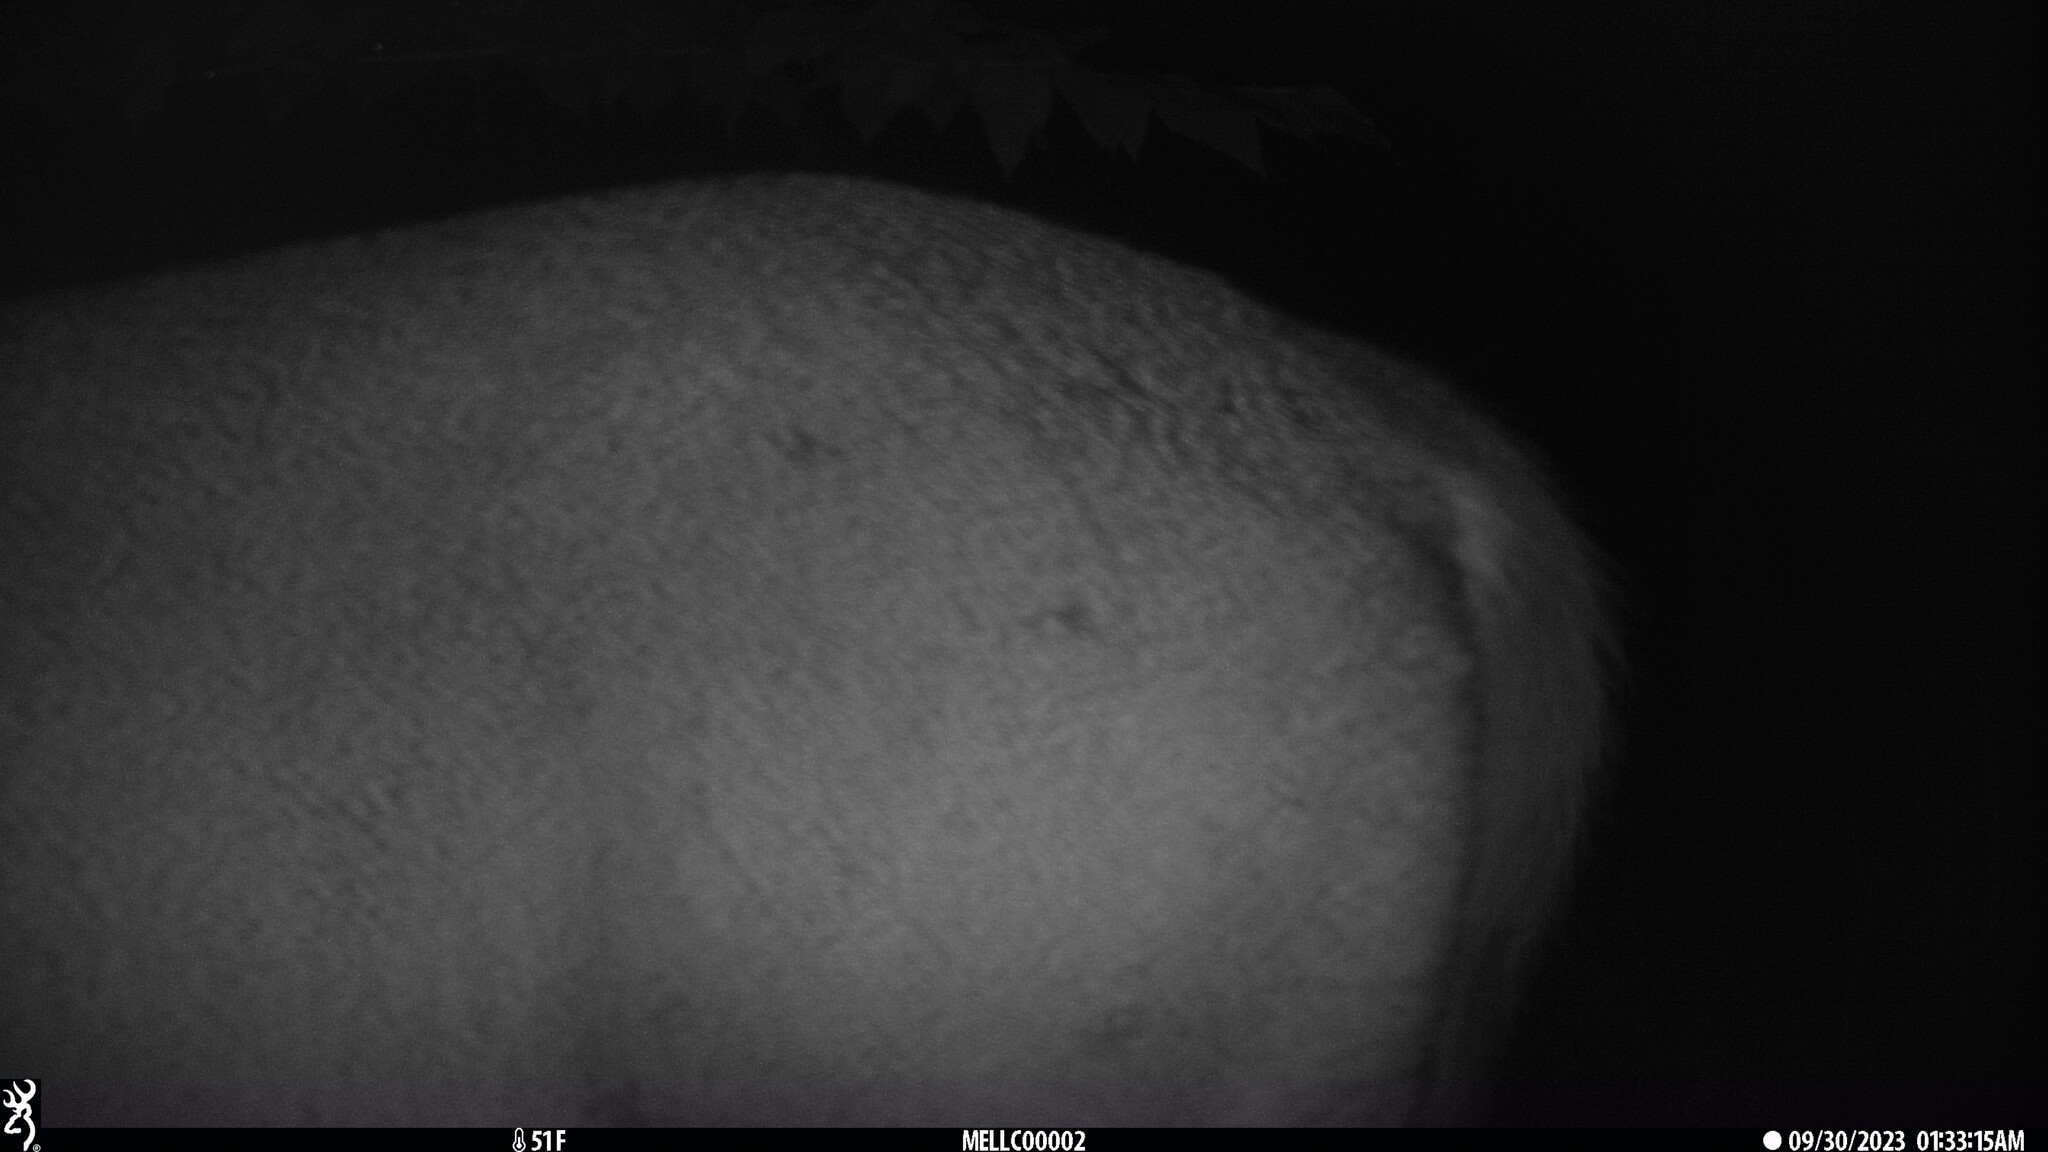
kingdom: Animalia
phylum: Chordata
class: Mammalia
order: Artiodactyla
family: Cervidae
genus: Odocoileus
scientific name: Odocoileus virginianus
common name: White-tailed deer
